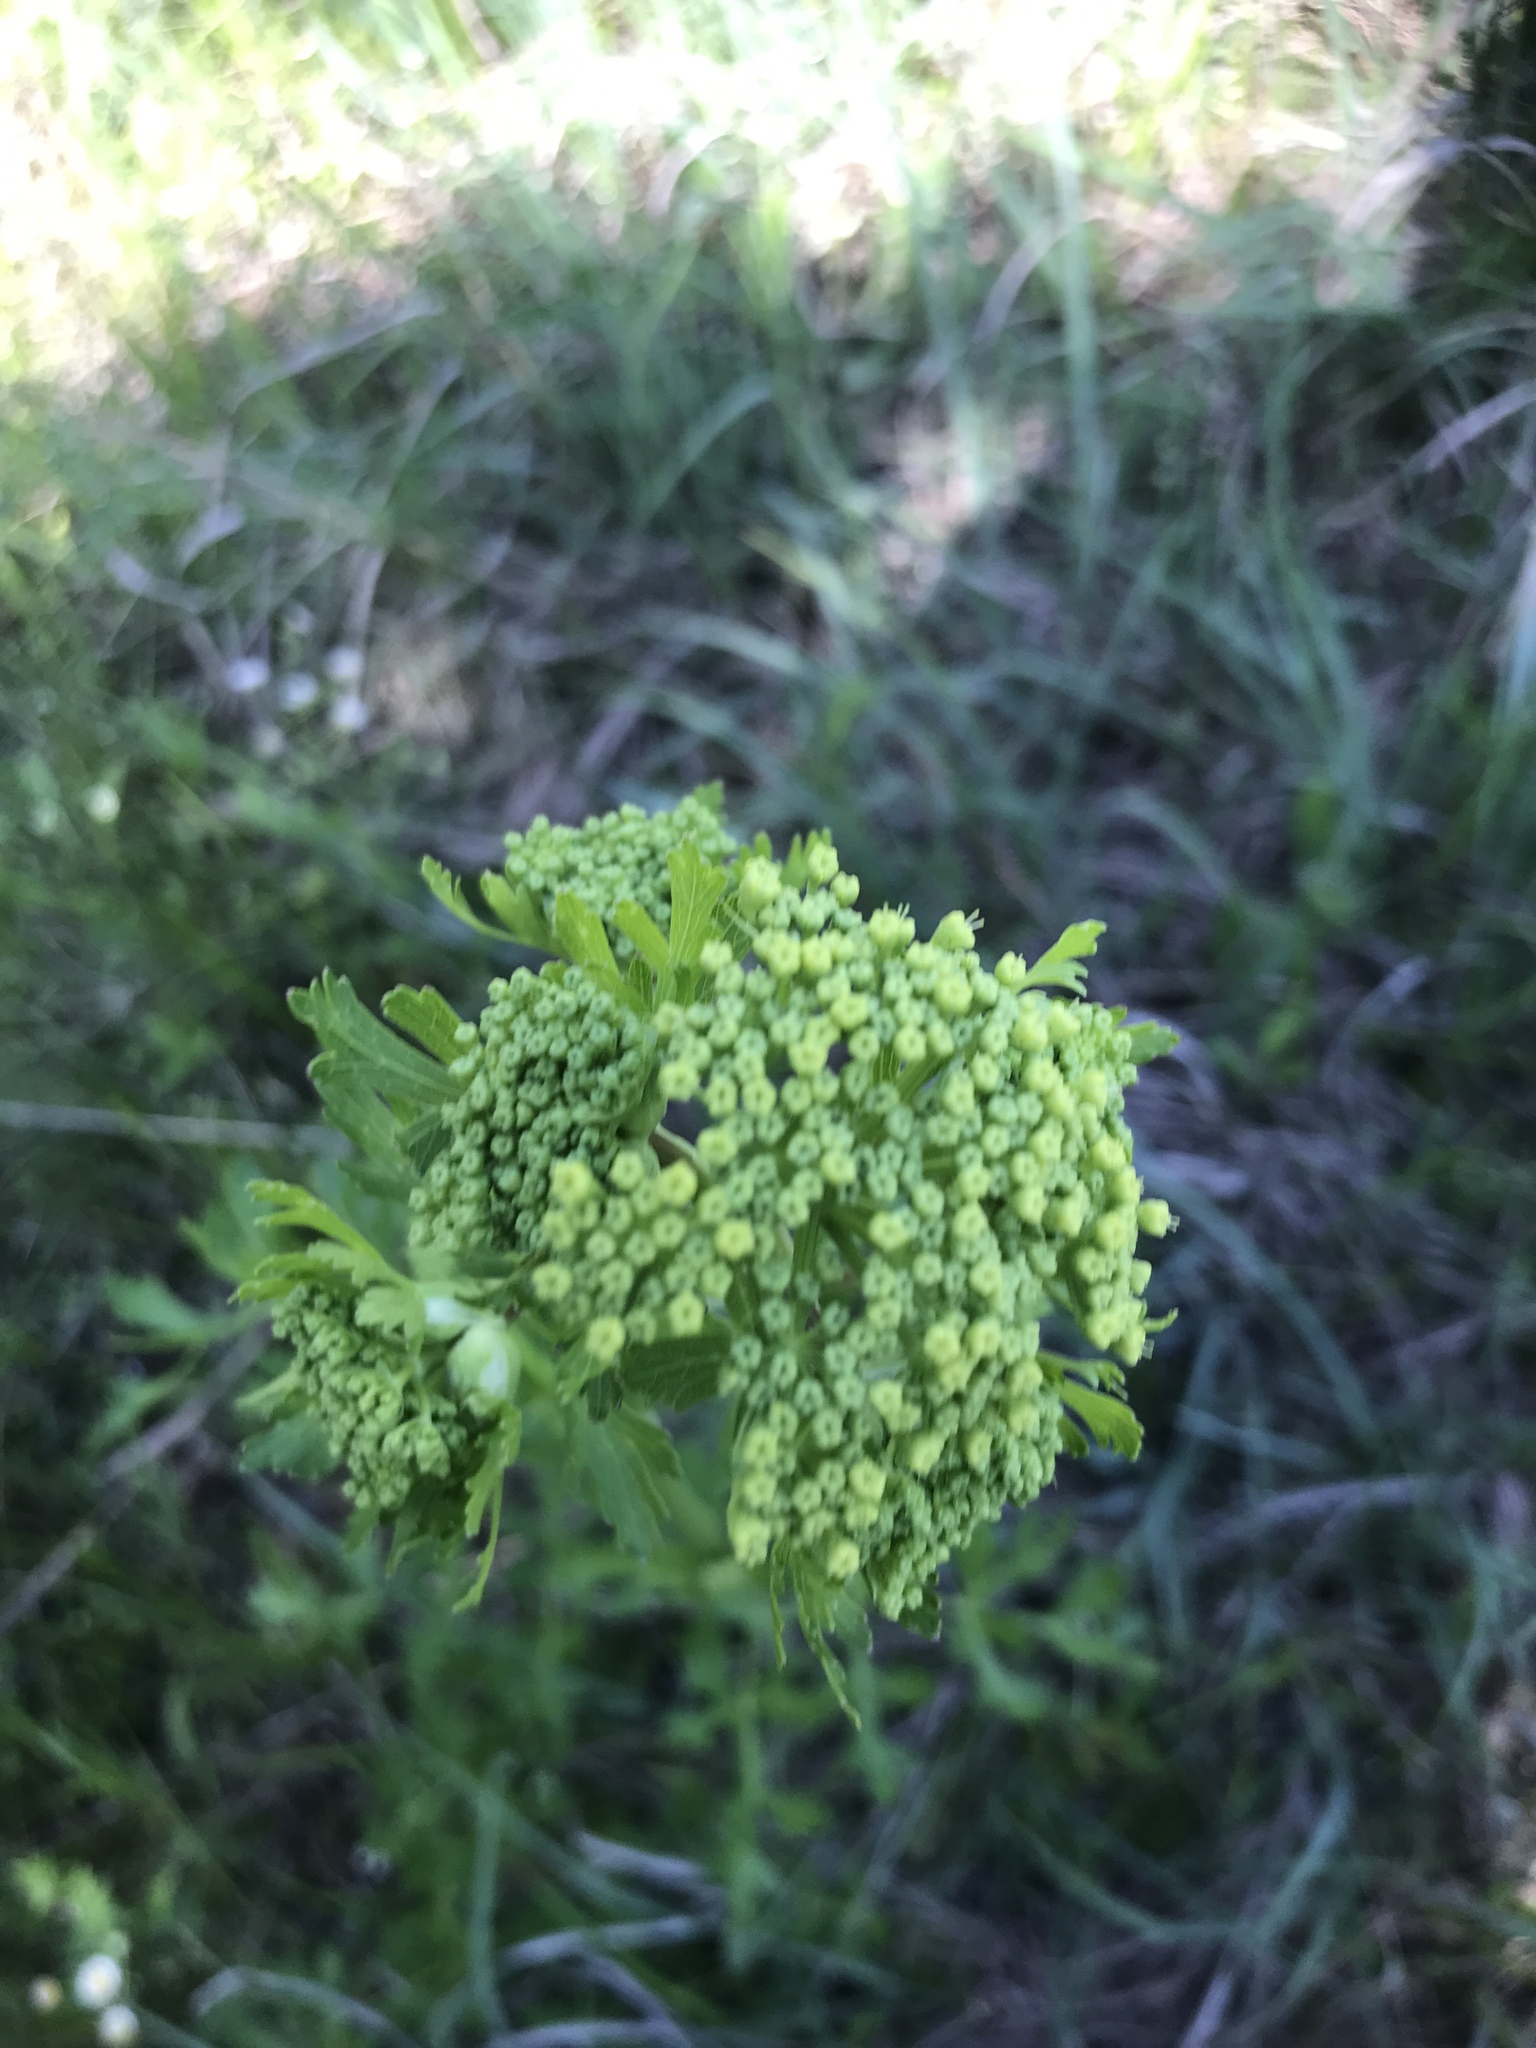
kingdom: Plantae
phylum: Tracheophyta
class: Magnoliopsida
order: Apiales
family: Apiaceae
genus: Polytaenia
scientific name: Polytaenia texana
